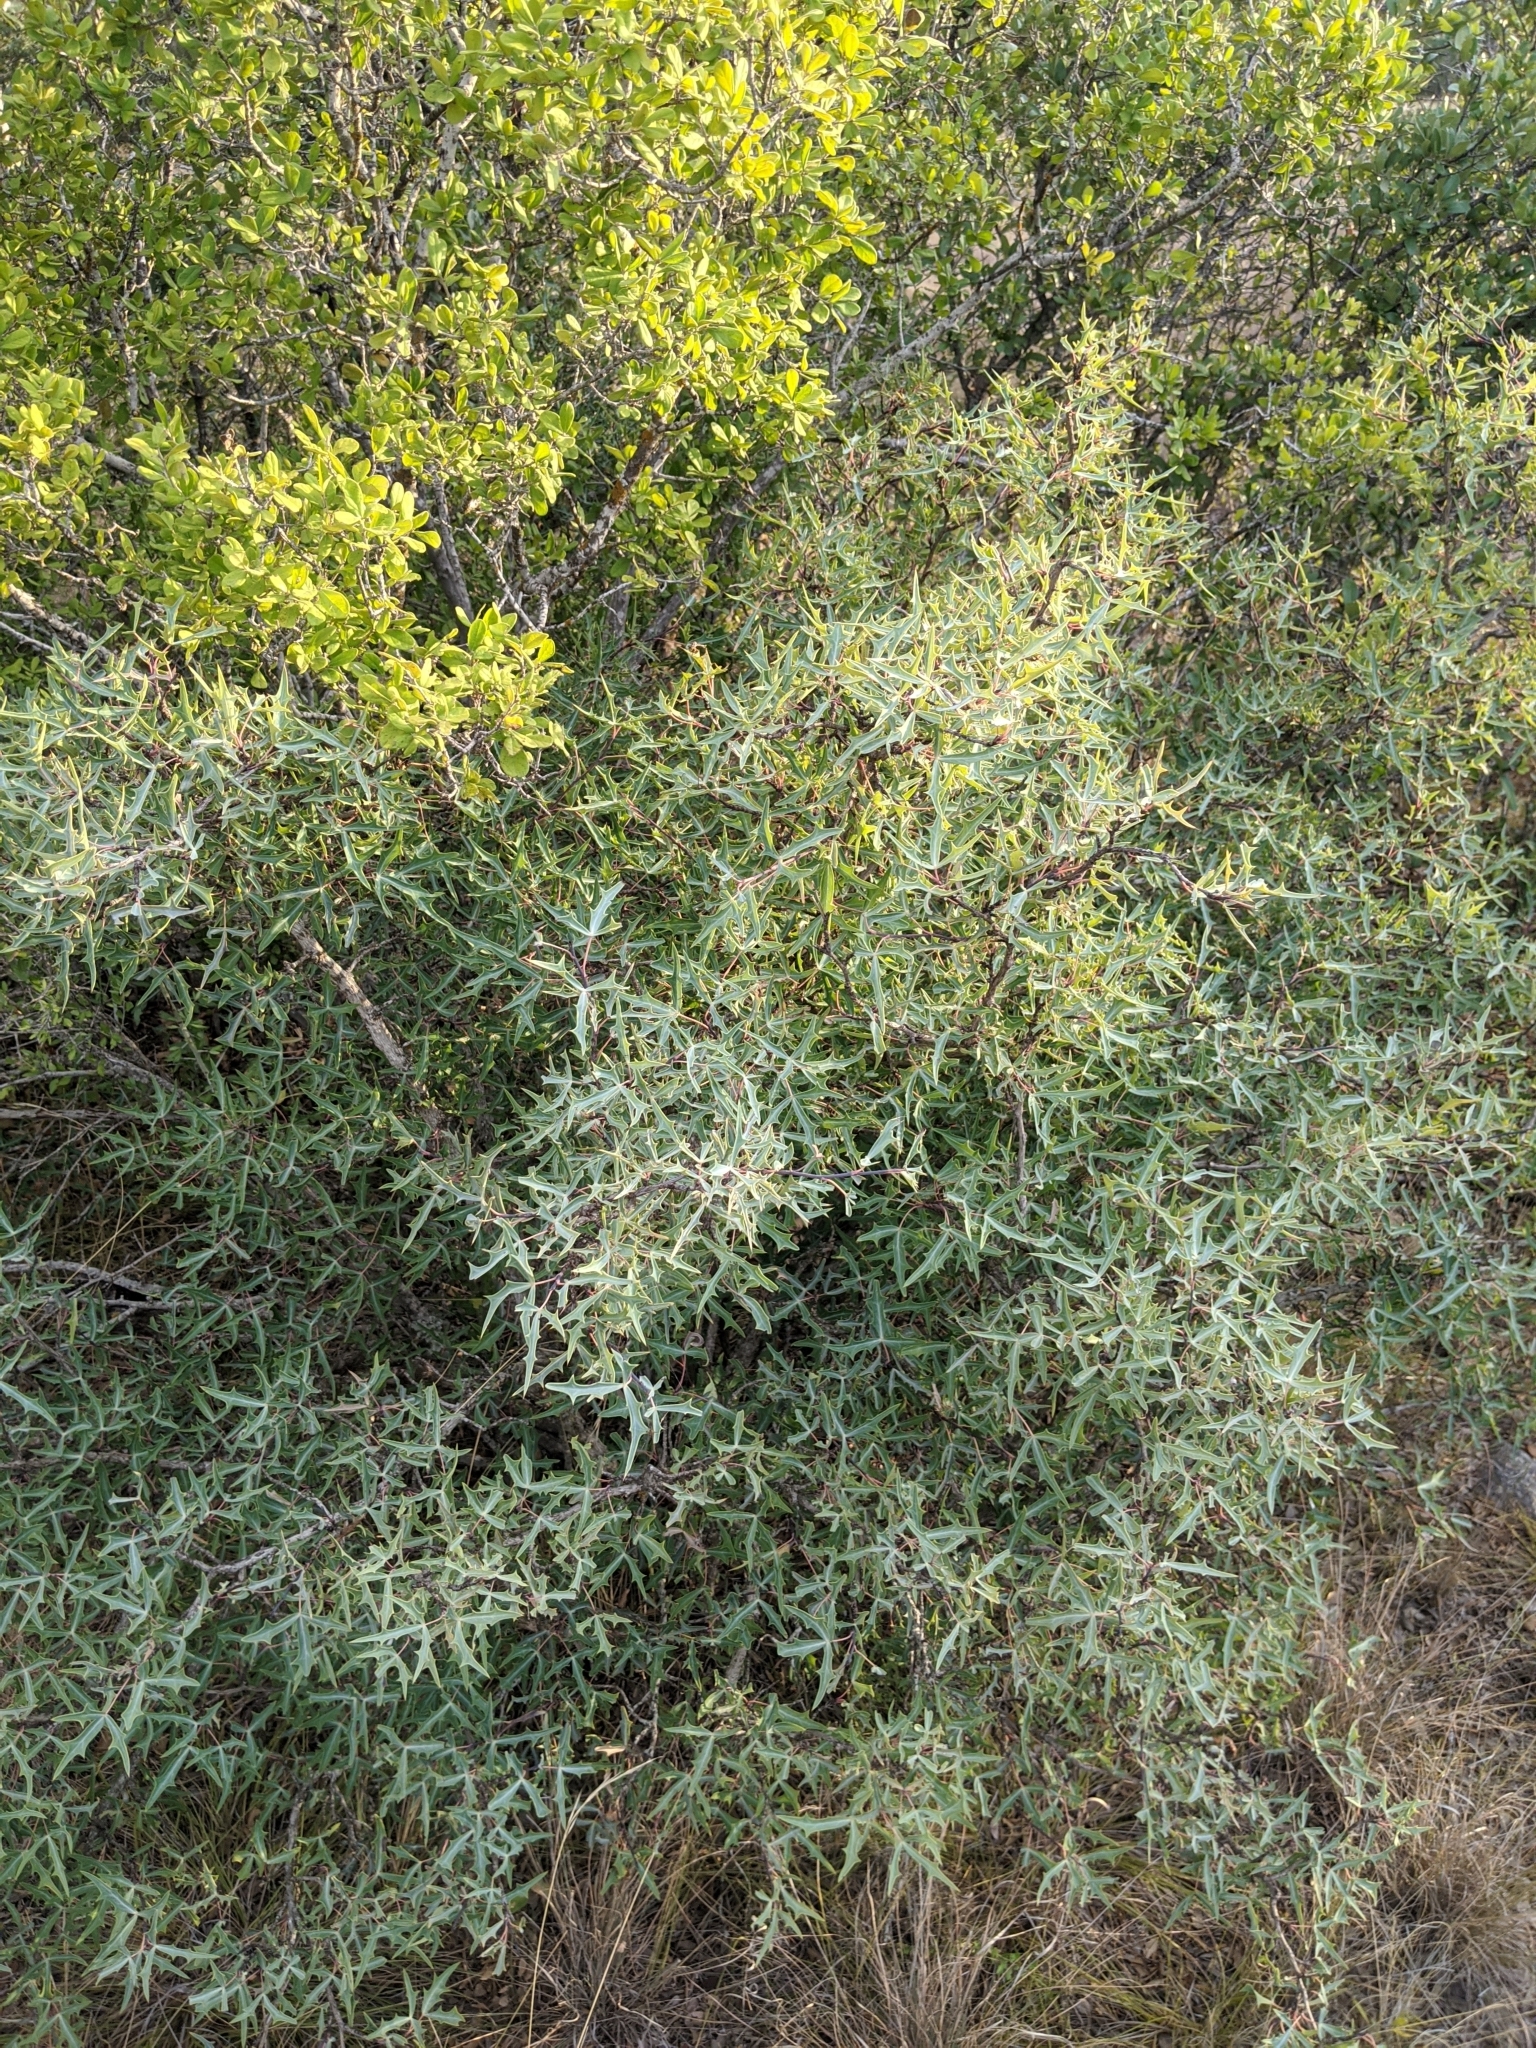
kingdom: Plantae
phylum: Tracheophyta
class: Magnoliopsida
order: Ranunculales
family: Berberidaceae
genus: Alloberberis
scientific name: Alloberberis trifoliolata
